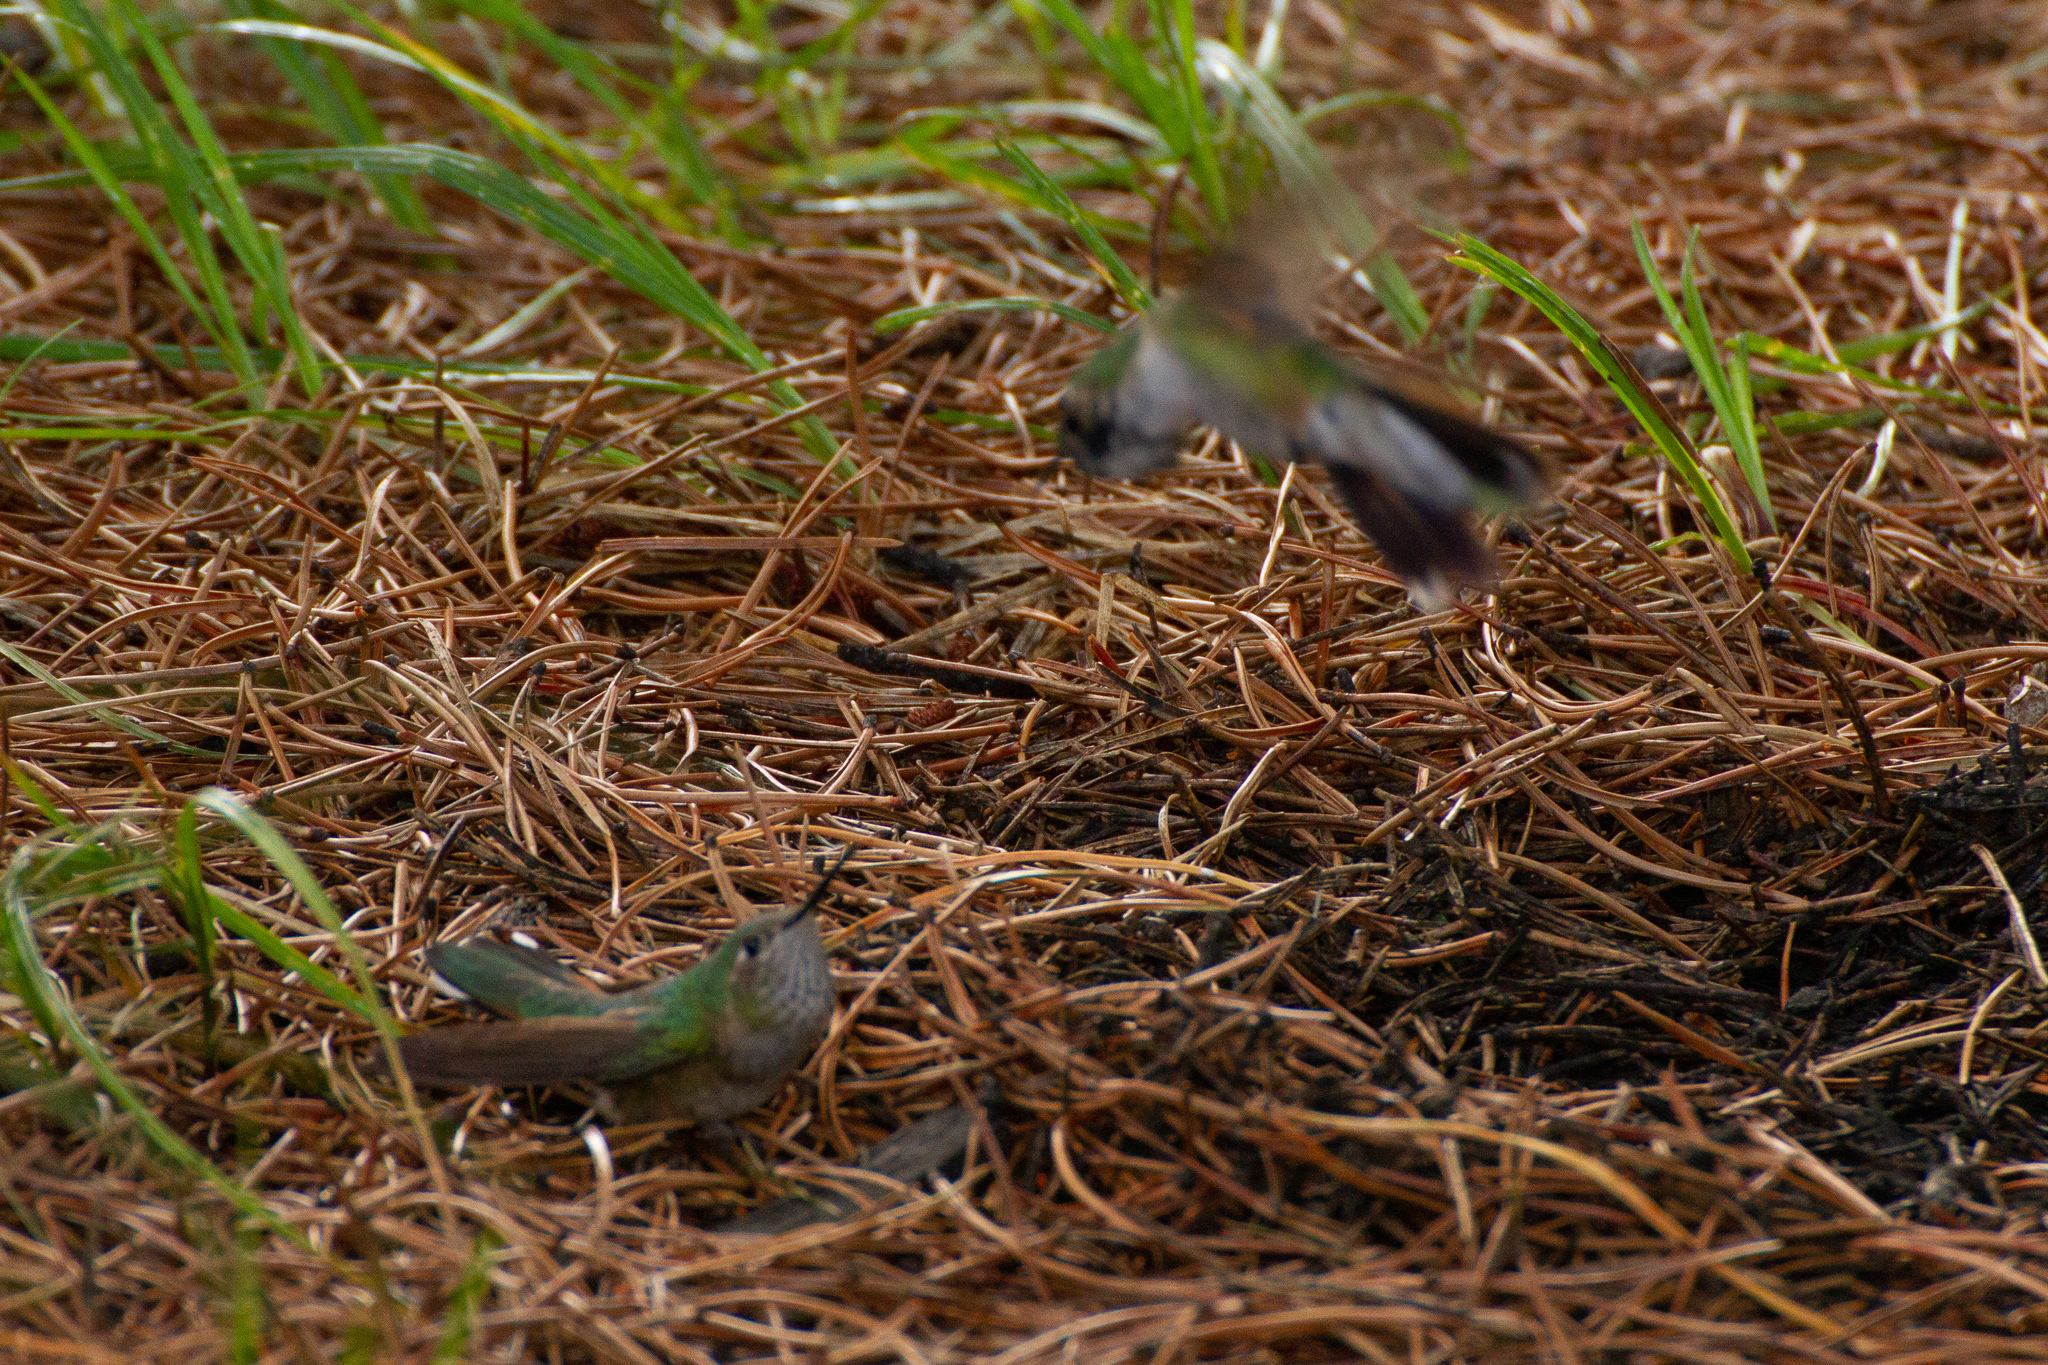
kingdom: Animalia
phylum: Chordata
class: Aves
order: Apodiformes
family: Trochilidae
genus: Selasphorus
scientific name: Selasphorus platycercus
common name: Broad-tailed hummingbird
